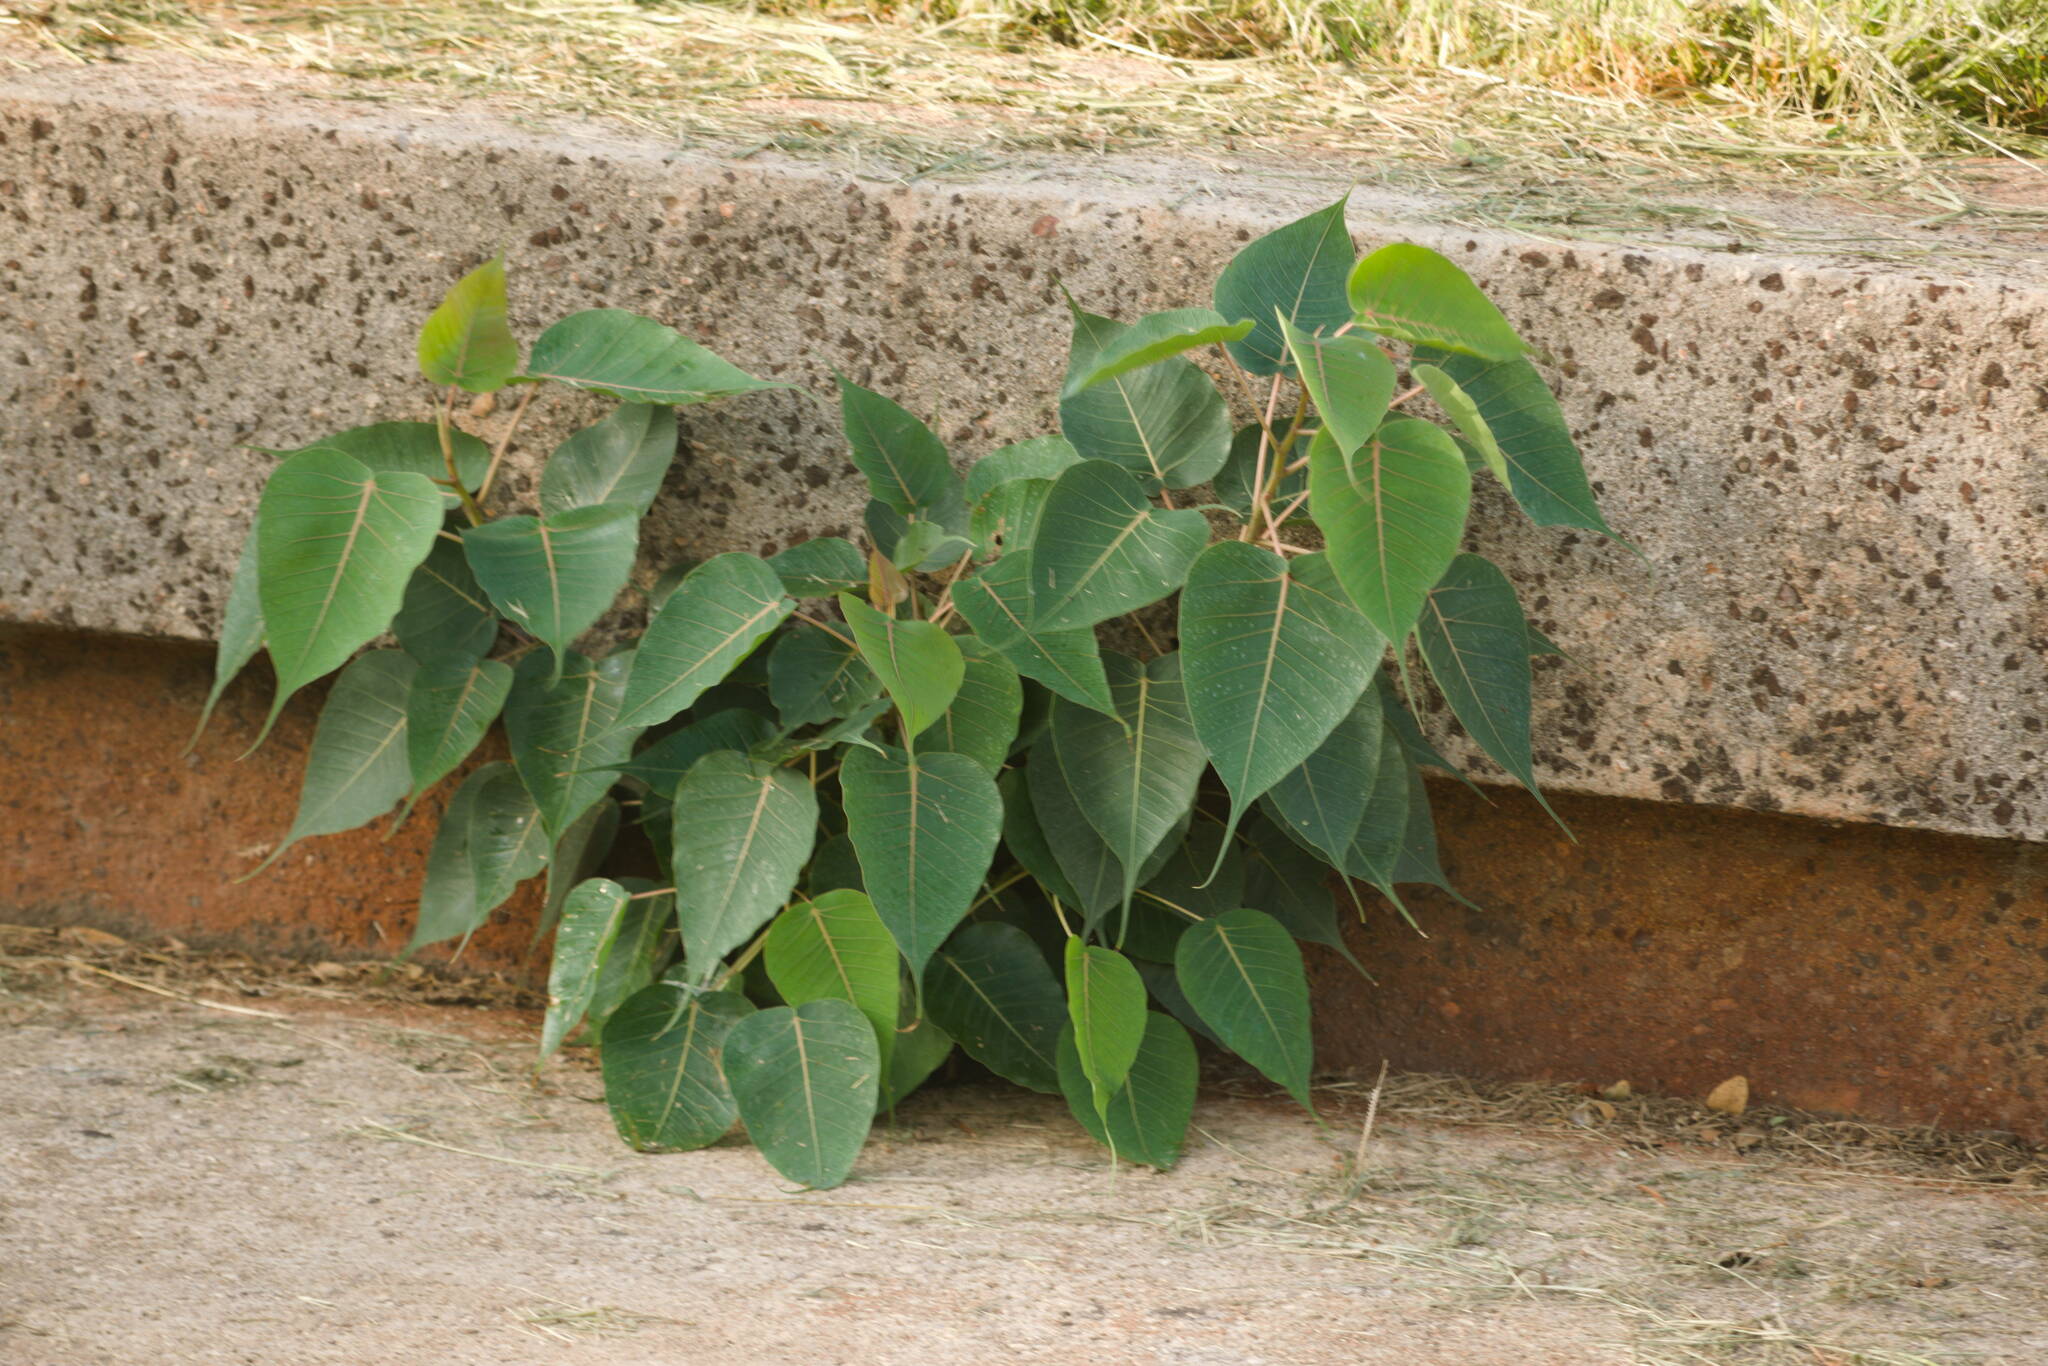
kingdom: Plantae
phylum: Tracheophyta
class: Magnoliopsida
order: Rosales
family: Moraceae
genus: Ficus
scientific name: Ficus religiosa
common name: Bodhi tree
